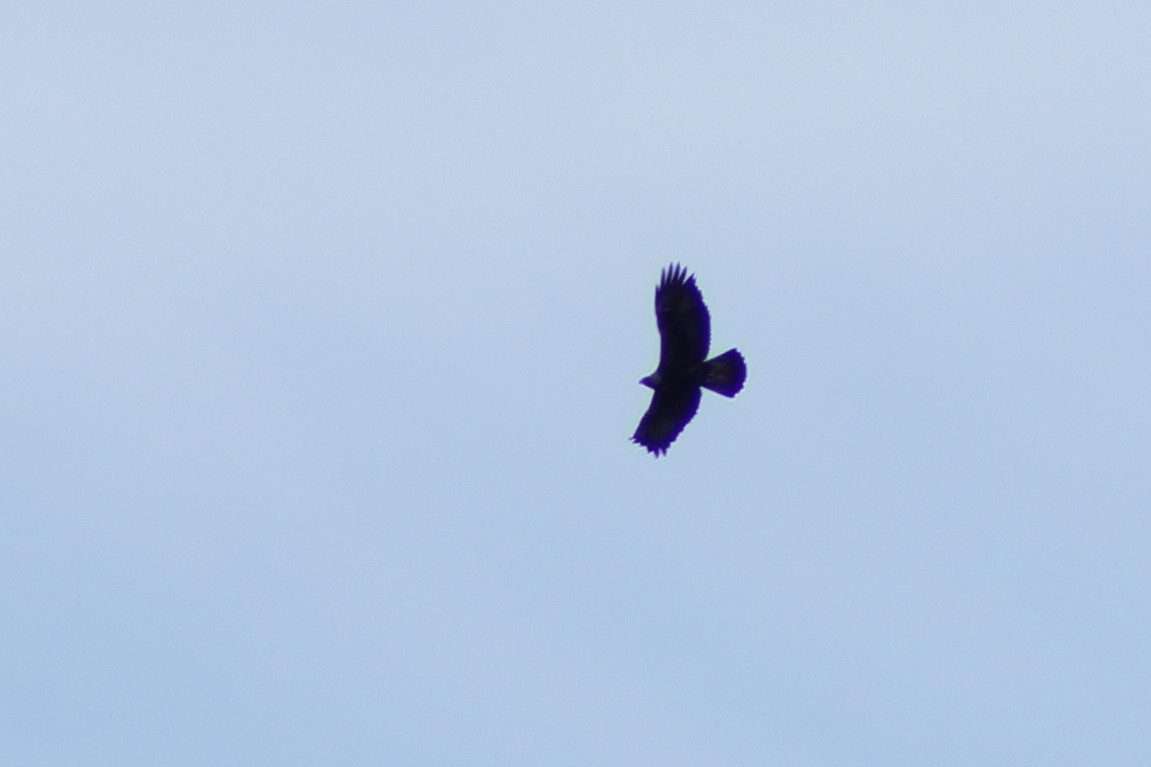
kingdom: Animalia
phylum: Chordata
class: Aves
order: Accipitriformes
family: Accipitridae
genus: Aquila
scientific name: Aquila chrysaetos
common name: Golden eagle
